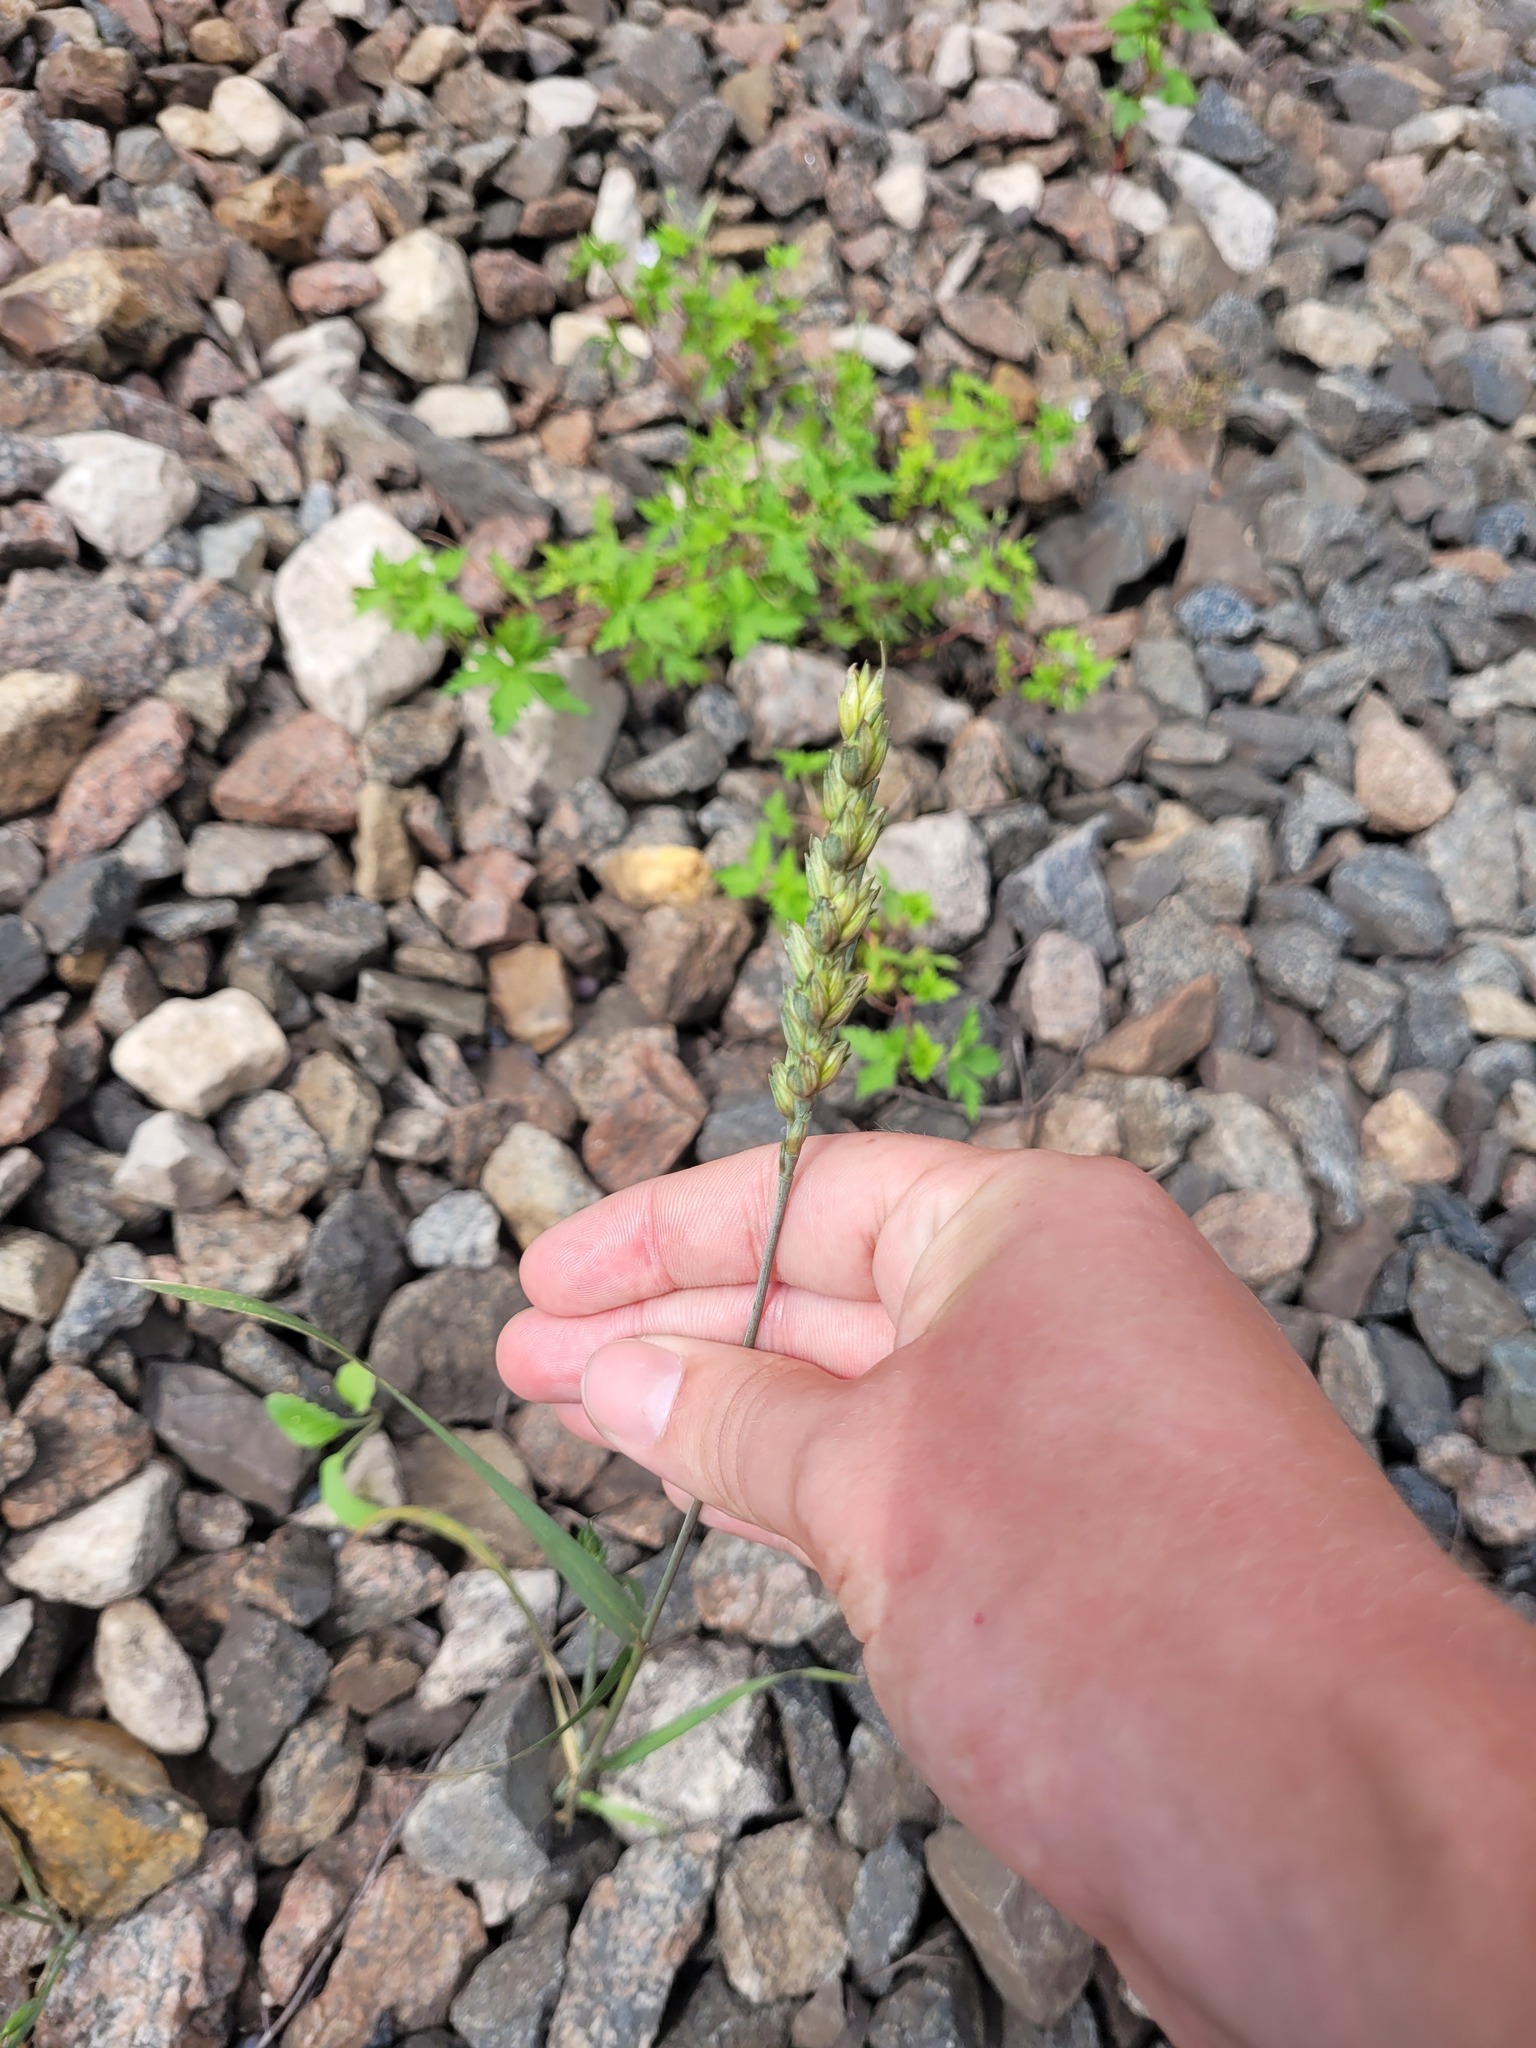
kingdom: Plantae
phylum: Tracheophyta
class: Liliopsida
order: Poales
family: Poaceae
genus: Triticum
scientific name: Triticum aestivum
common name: Common wheat
